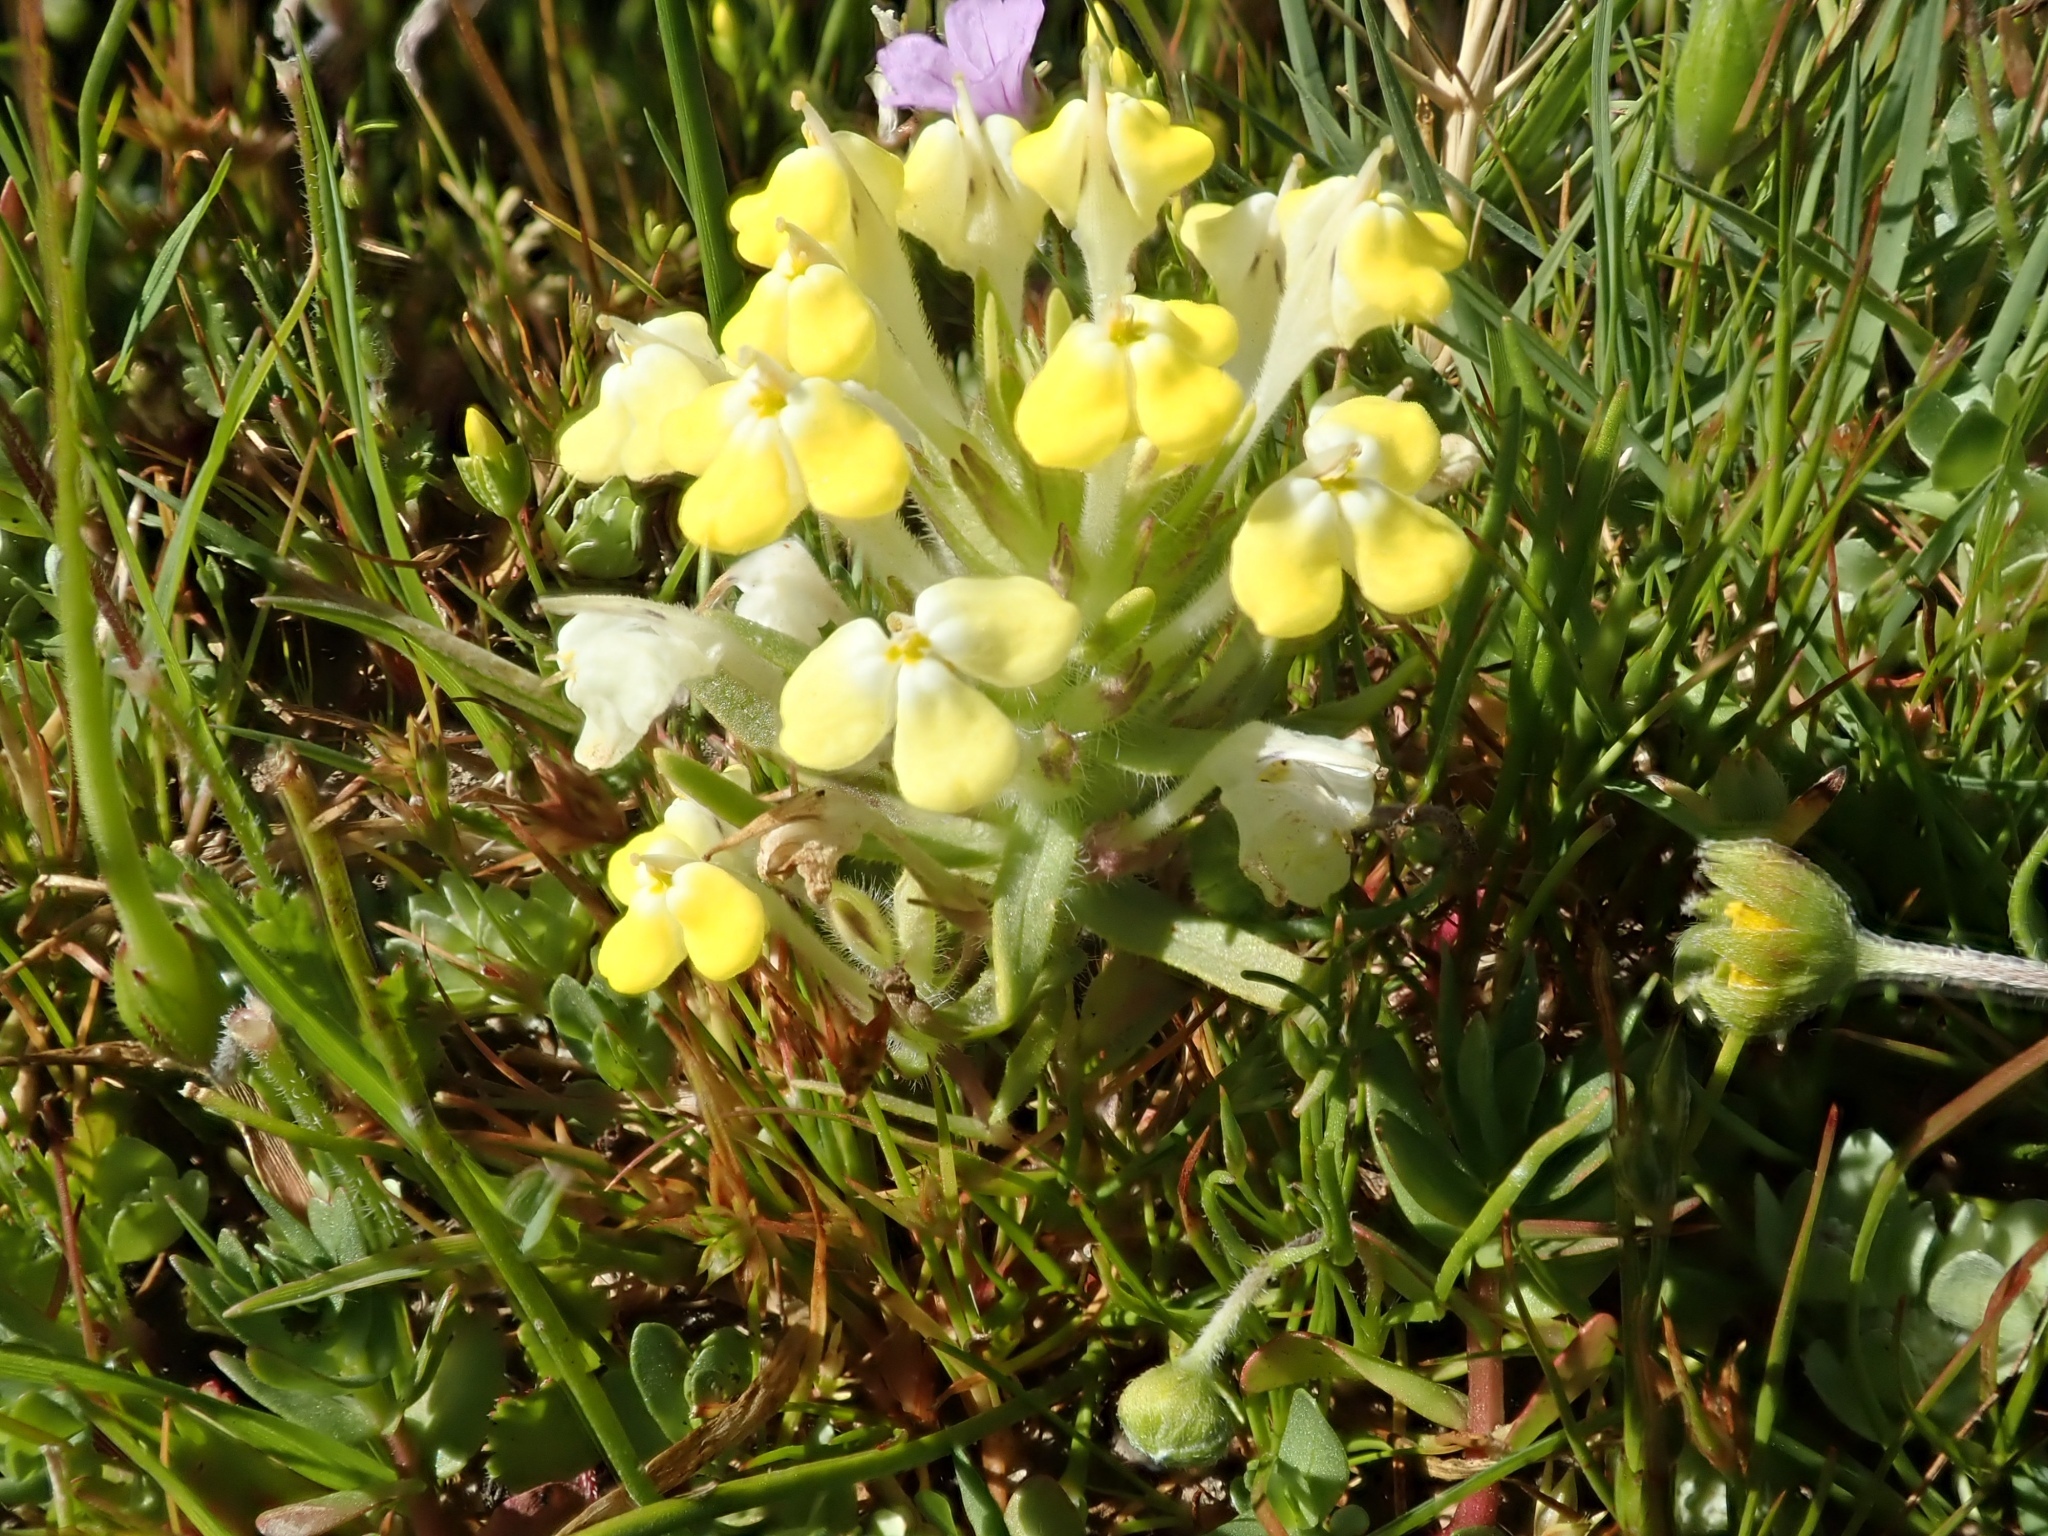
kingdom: Plantae
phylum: Tracheophyta
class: Magnoliopsida
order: Lamiales
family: Orobanchaceae
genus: Castilleja
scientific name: Castilleja campestris
